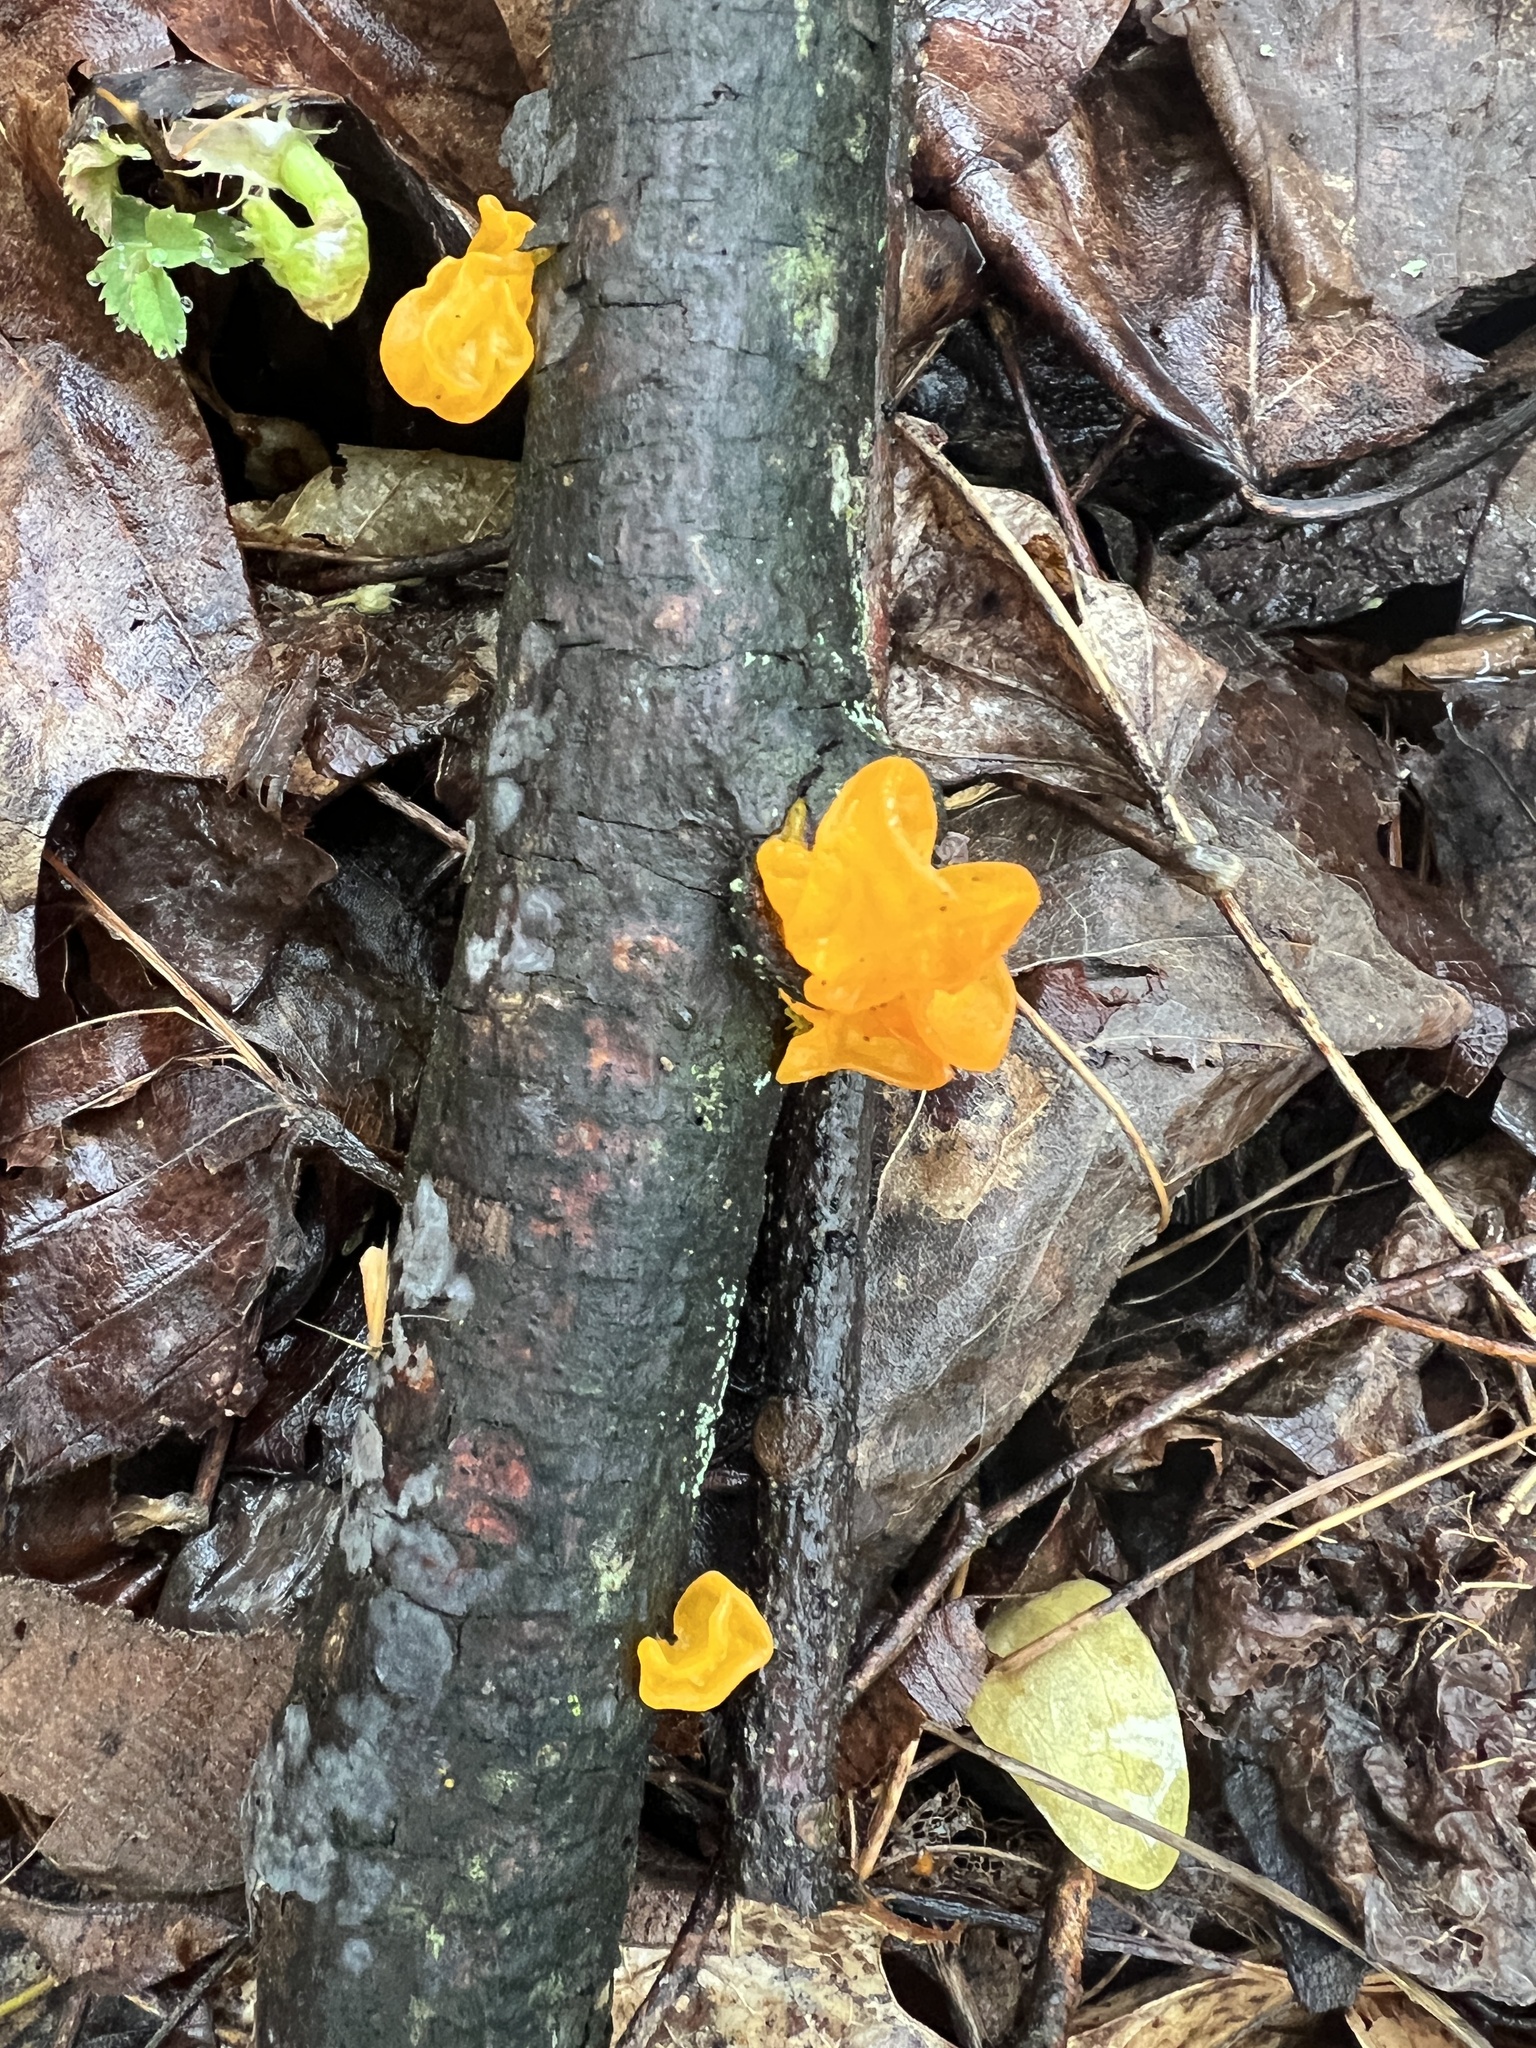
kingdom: Fungi
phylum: Basidiomycota
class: Dacrymycetes
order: Dacrymycetales
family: Dacrymycetaceae
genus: Dacrymyces
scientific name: Dacrymyces chrysospermus
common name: Orange jelly spot
